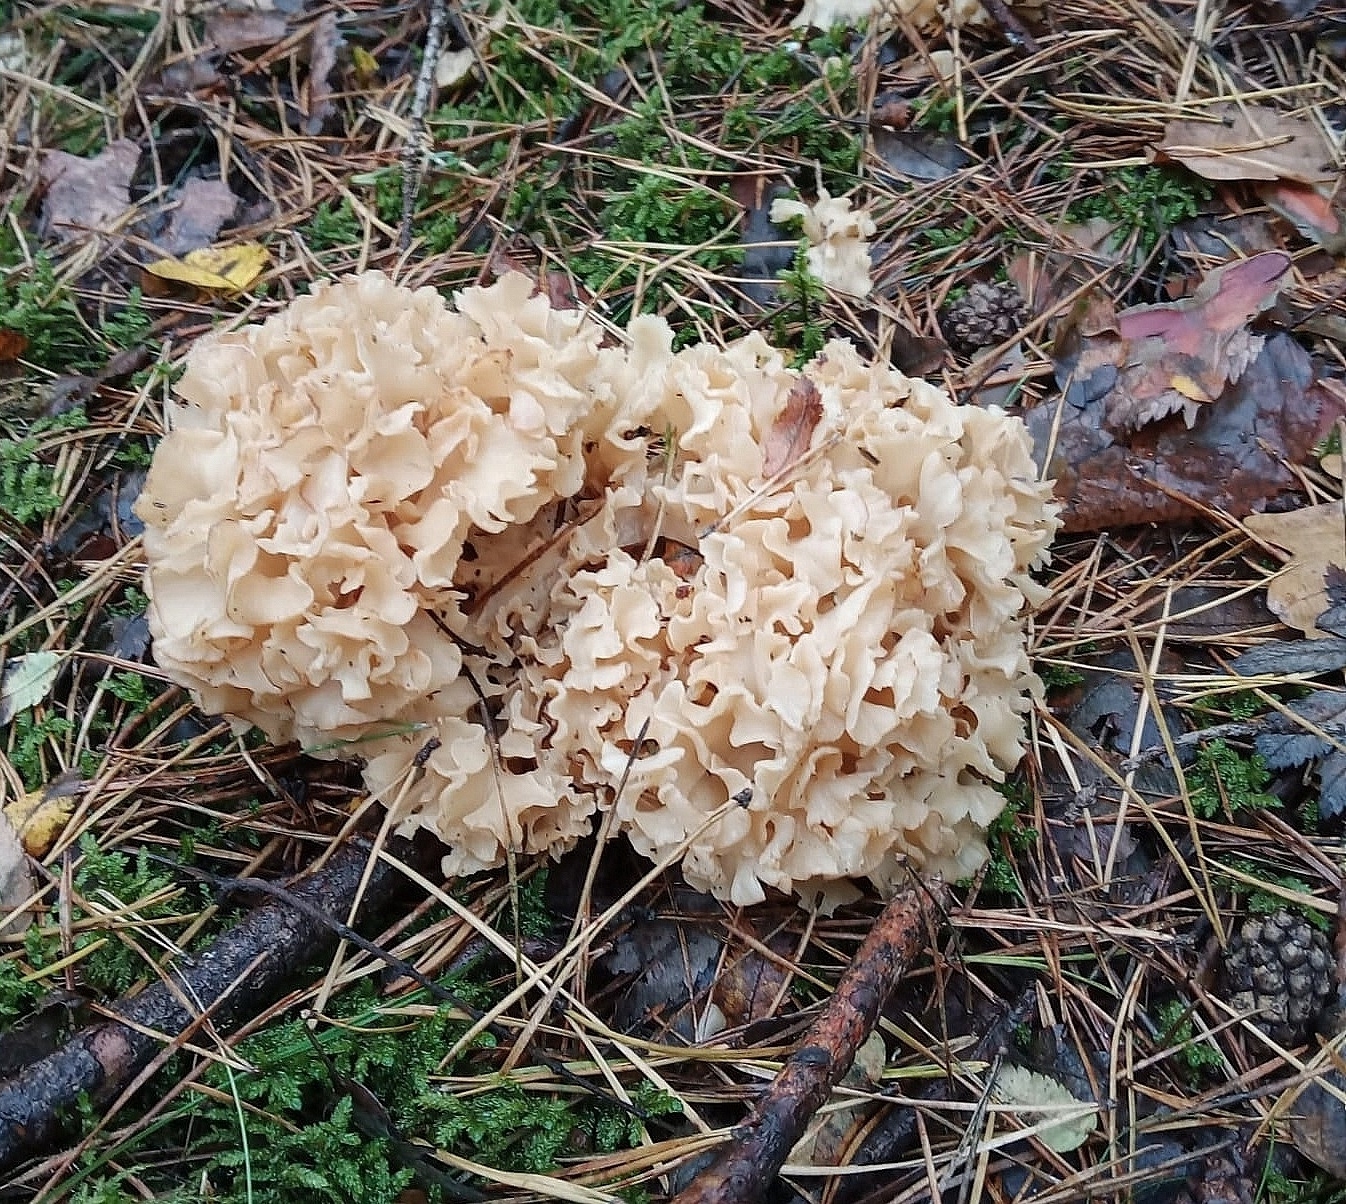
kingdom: Fungi
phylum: Basidiomycota
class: Agaricomycetes
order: Polyporales
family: Sparassidaceae
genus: Sparassis
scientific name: Sparassis crispa
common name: Brain fungus
